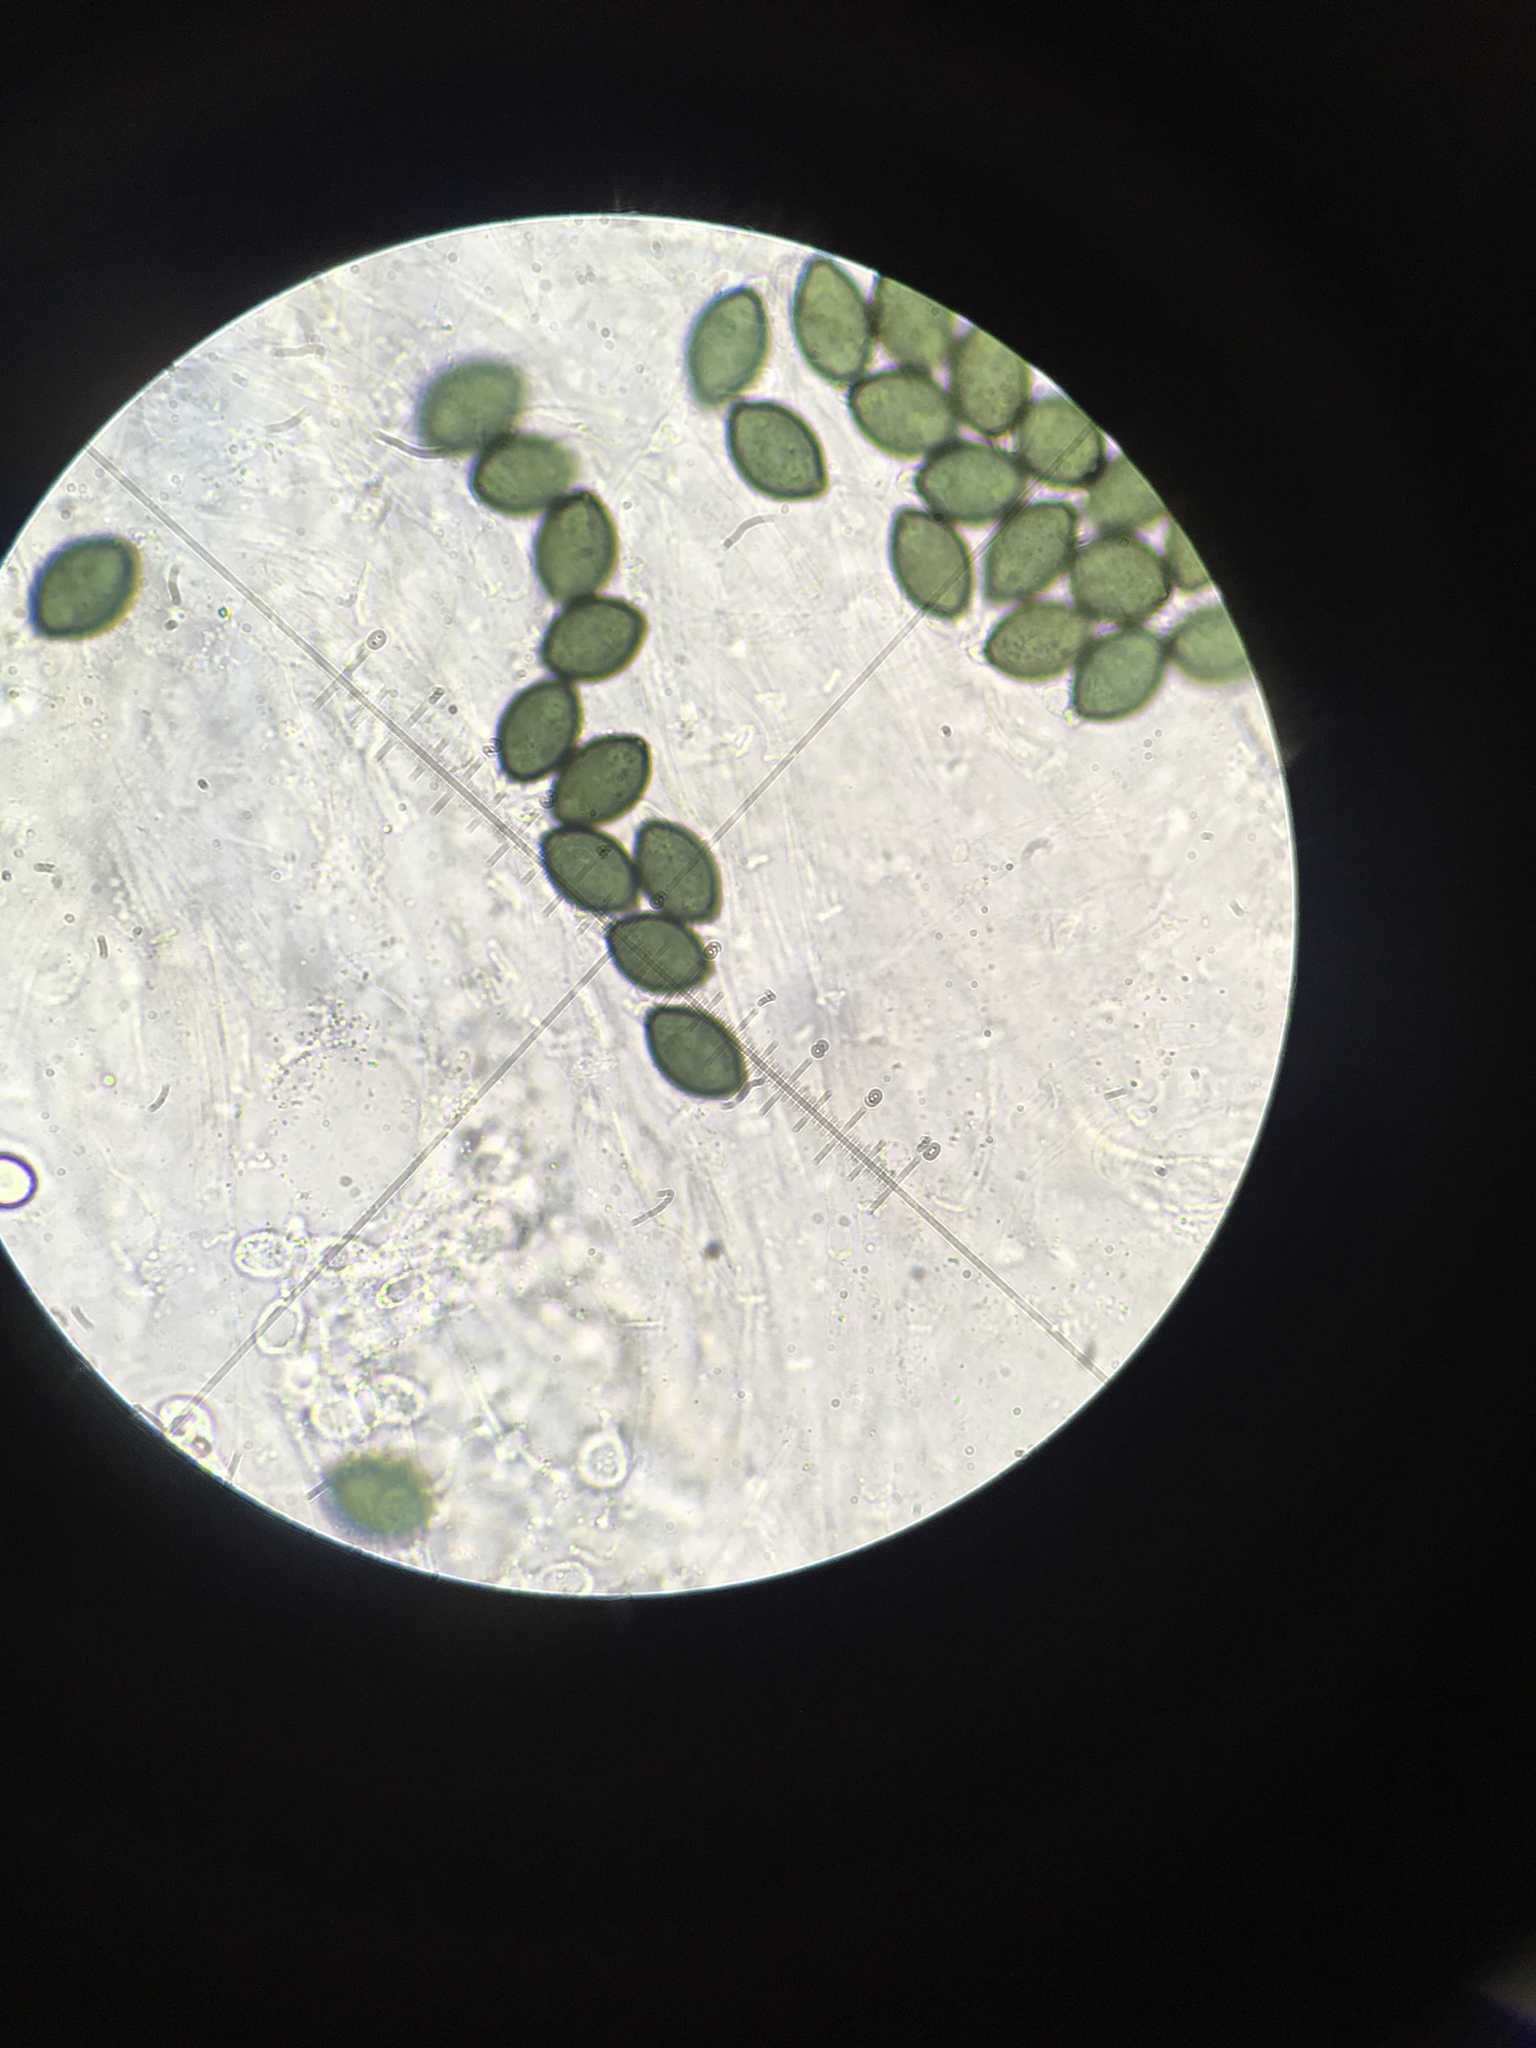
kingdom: Fungi
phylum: Ascomycota
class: Sordariomycetes
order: Sordariales
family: Podosporaceae
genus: Triangularia
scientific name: Triangularia setosa
